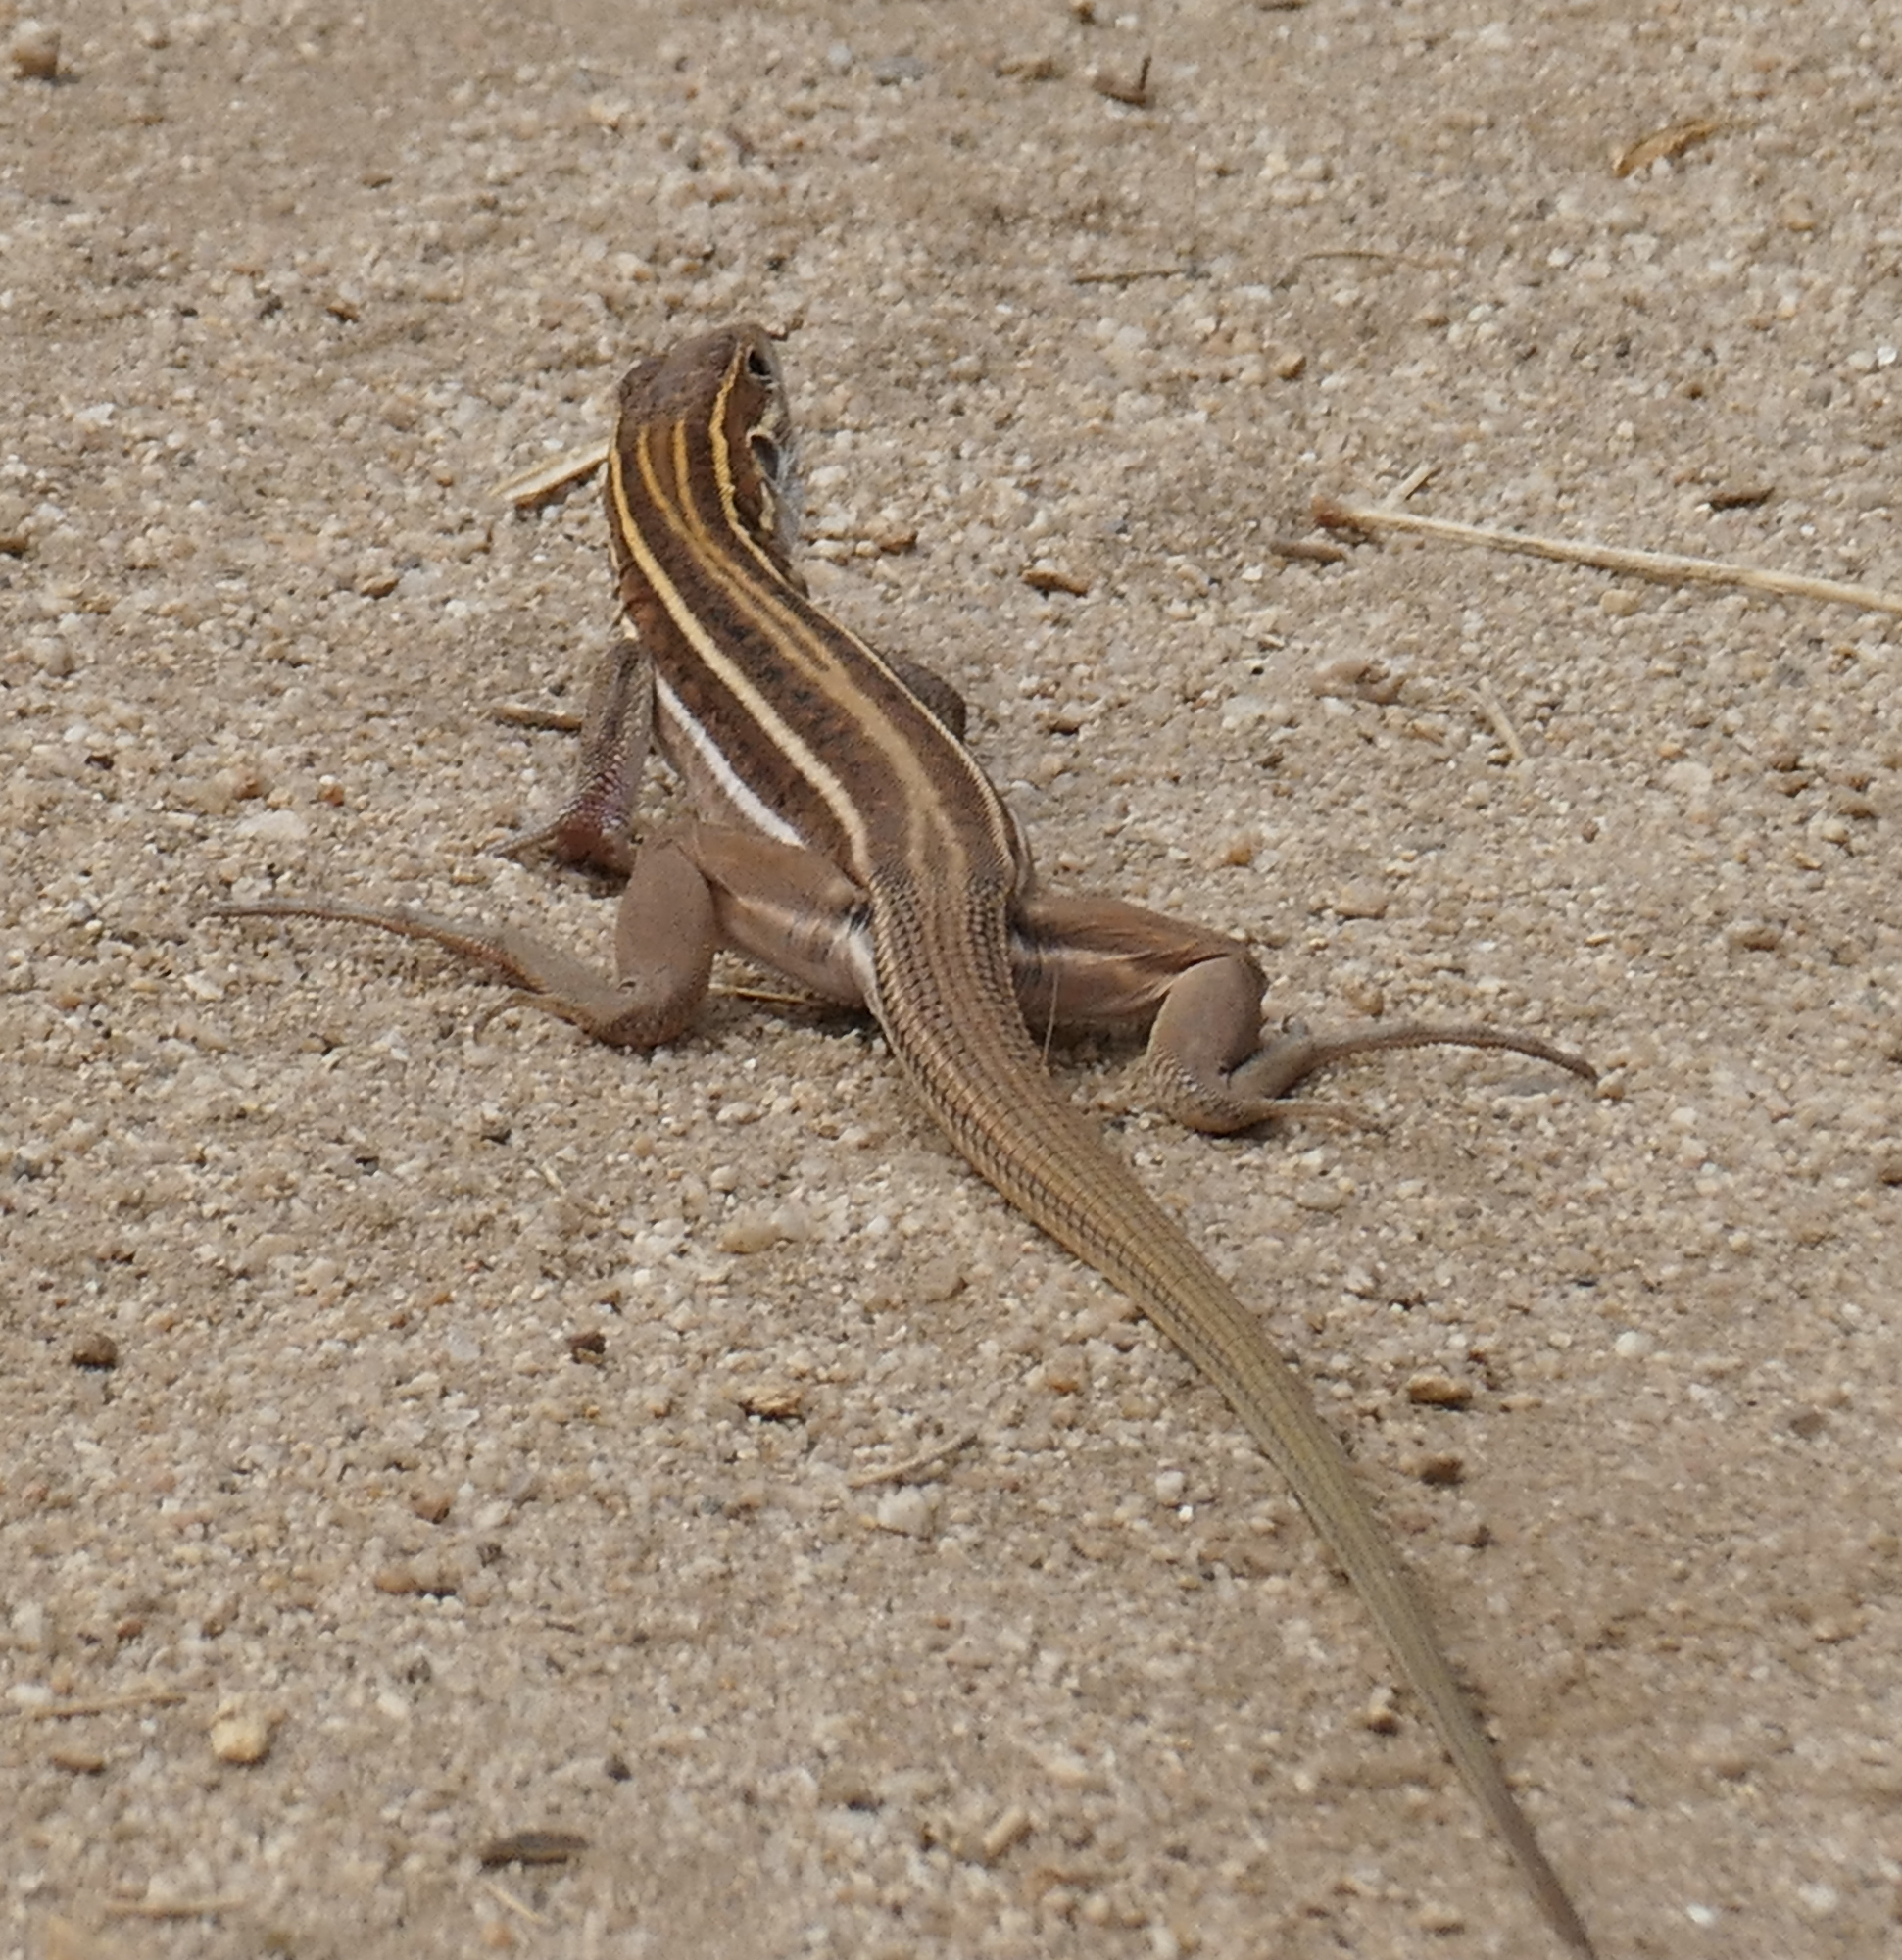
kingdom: Animalia
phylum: Chordata
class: Squamata
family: Teiidae
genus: Aspidoscelis
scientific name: Aspidoscelis sonorae
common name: Sonoran spotted whiptail
